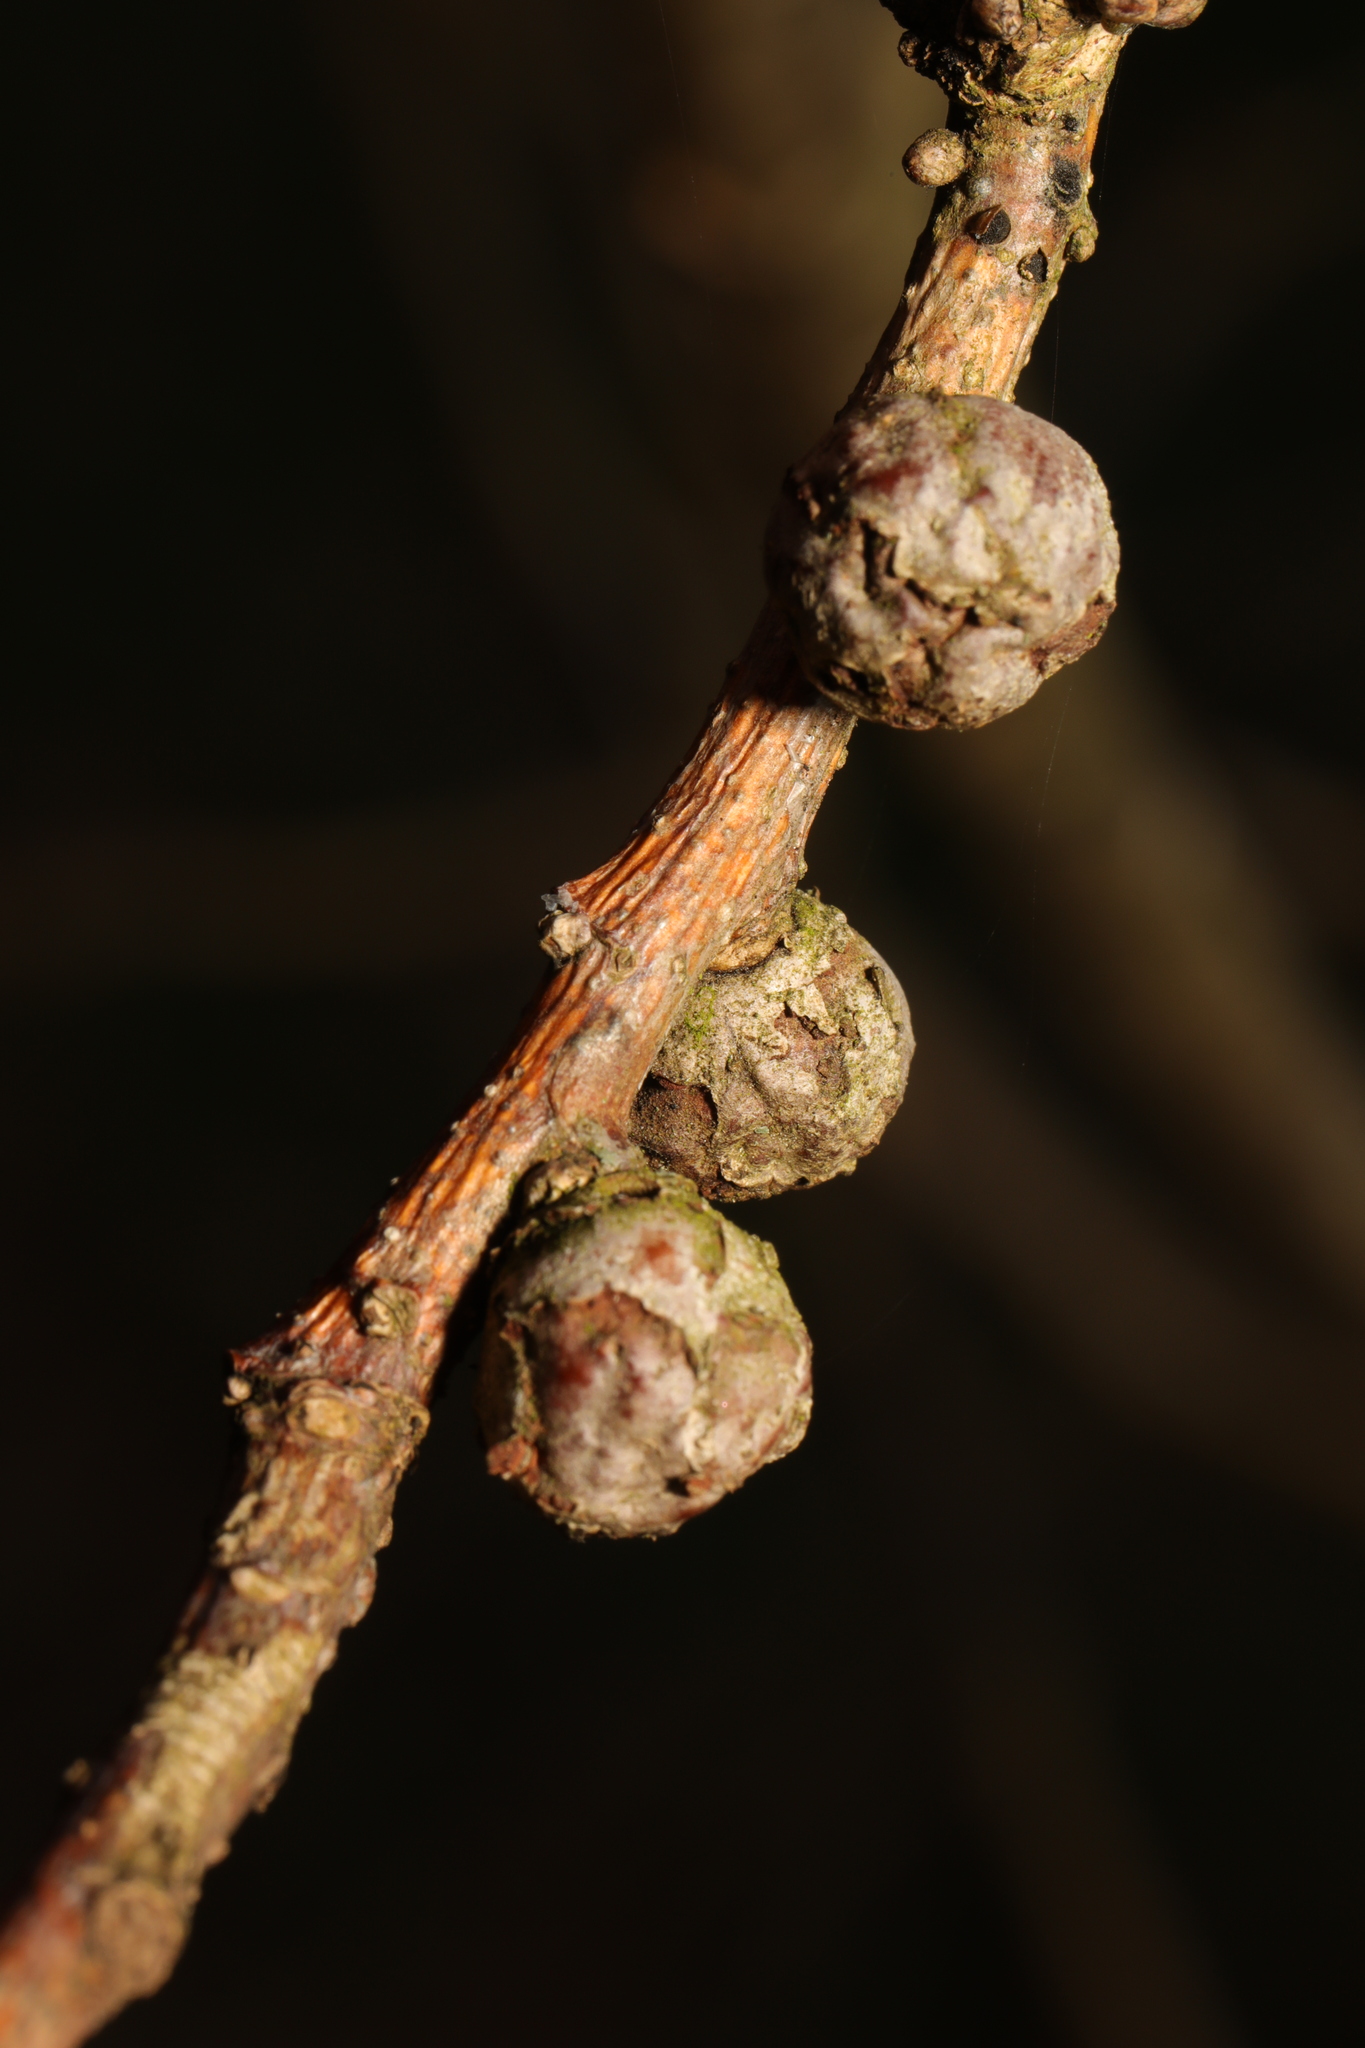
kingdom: Animalia
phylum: Arthropoda
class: Insecta
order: Hymenoptera
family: Cynipidae
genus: Andricus
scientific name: Andricus lignicolus
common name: Cola-nut gall
